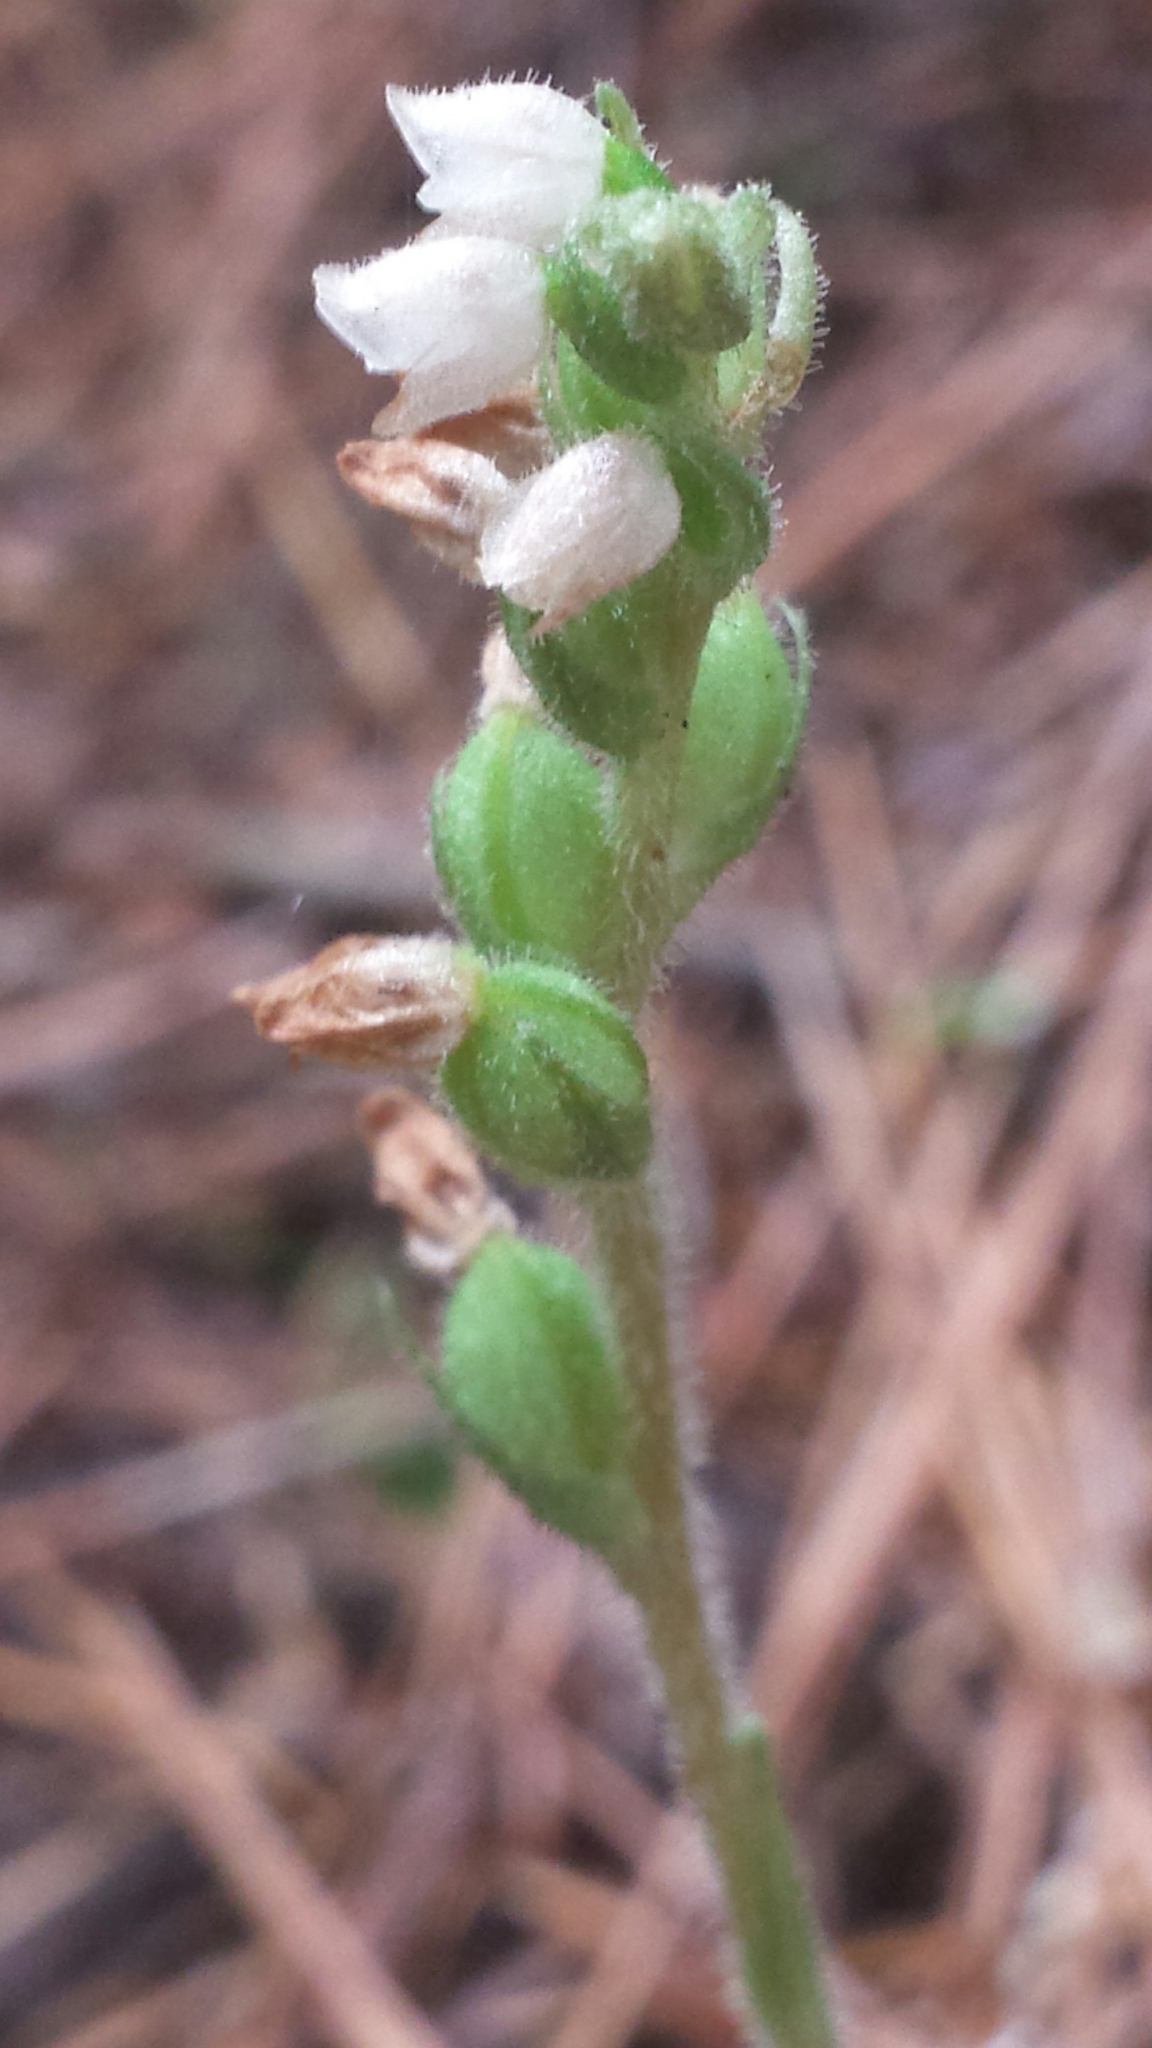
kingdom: Plantae
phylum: Tracheophyta
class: Liliopsida
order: Asparagales
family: Orchidaceae
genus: Goodyera
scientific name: Goodyera tesselata
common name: Checkered rattlesnake-plantain
